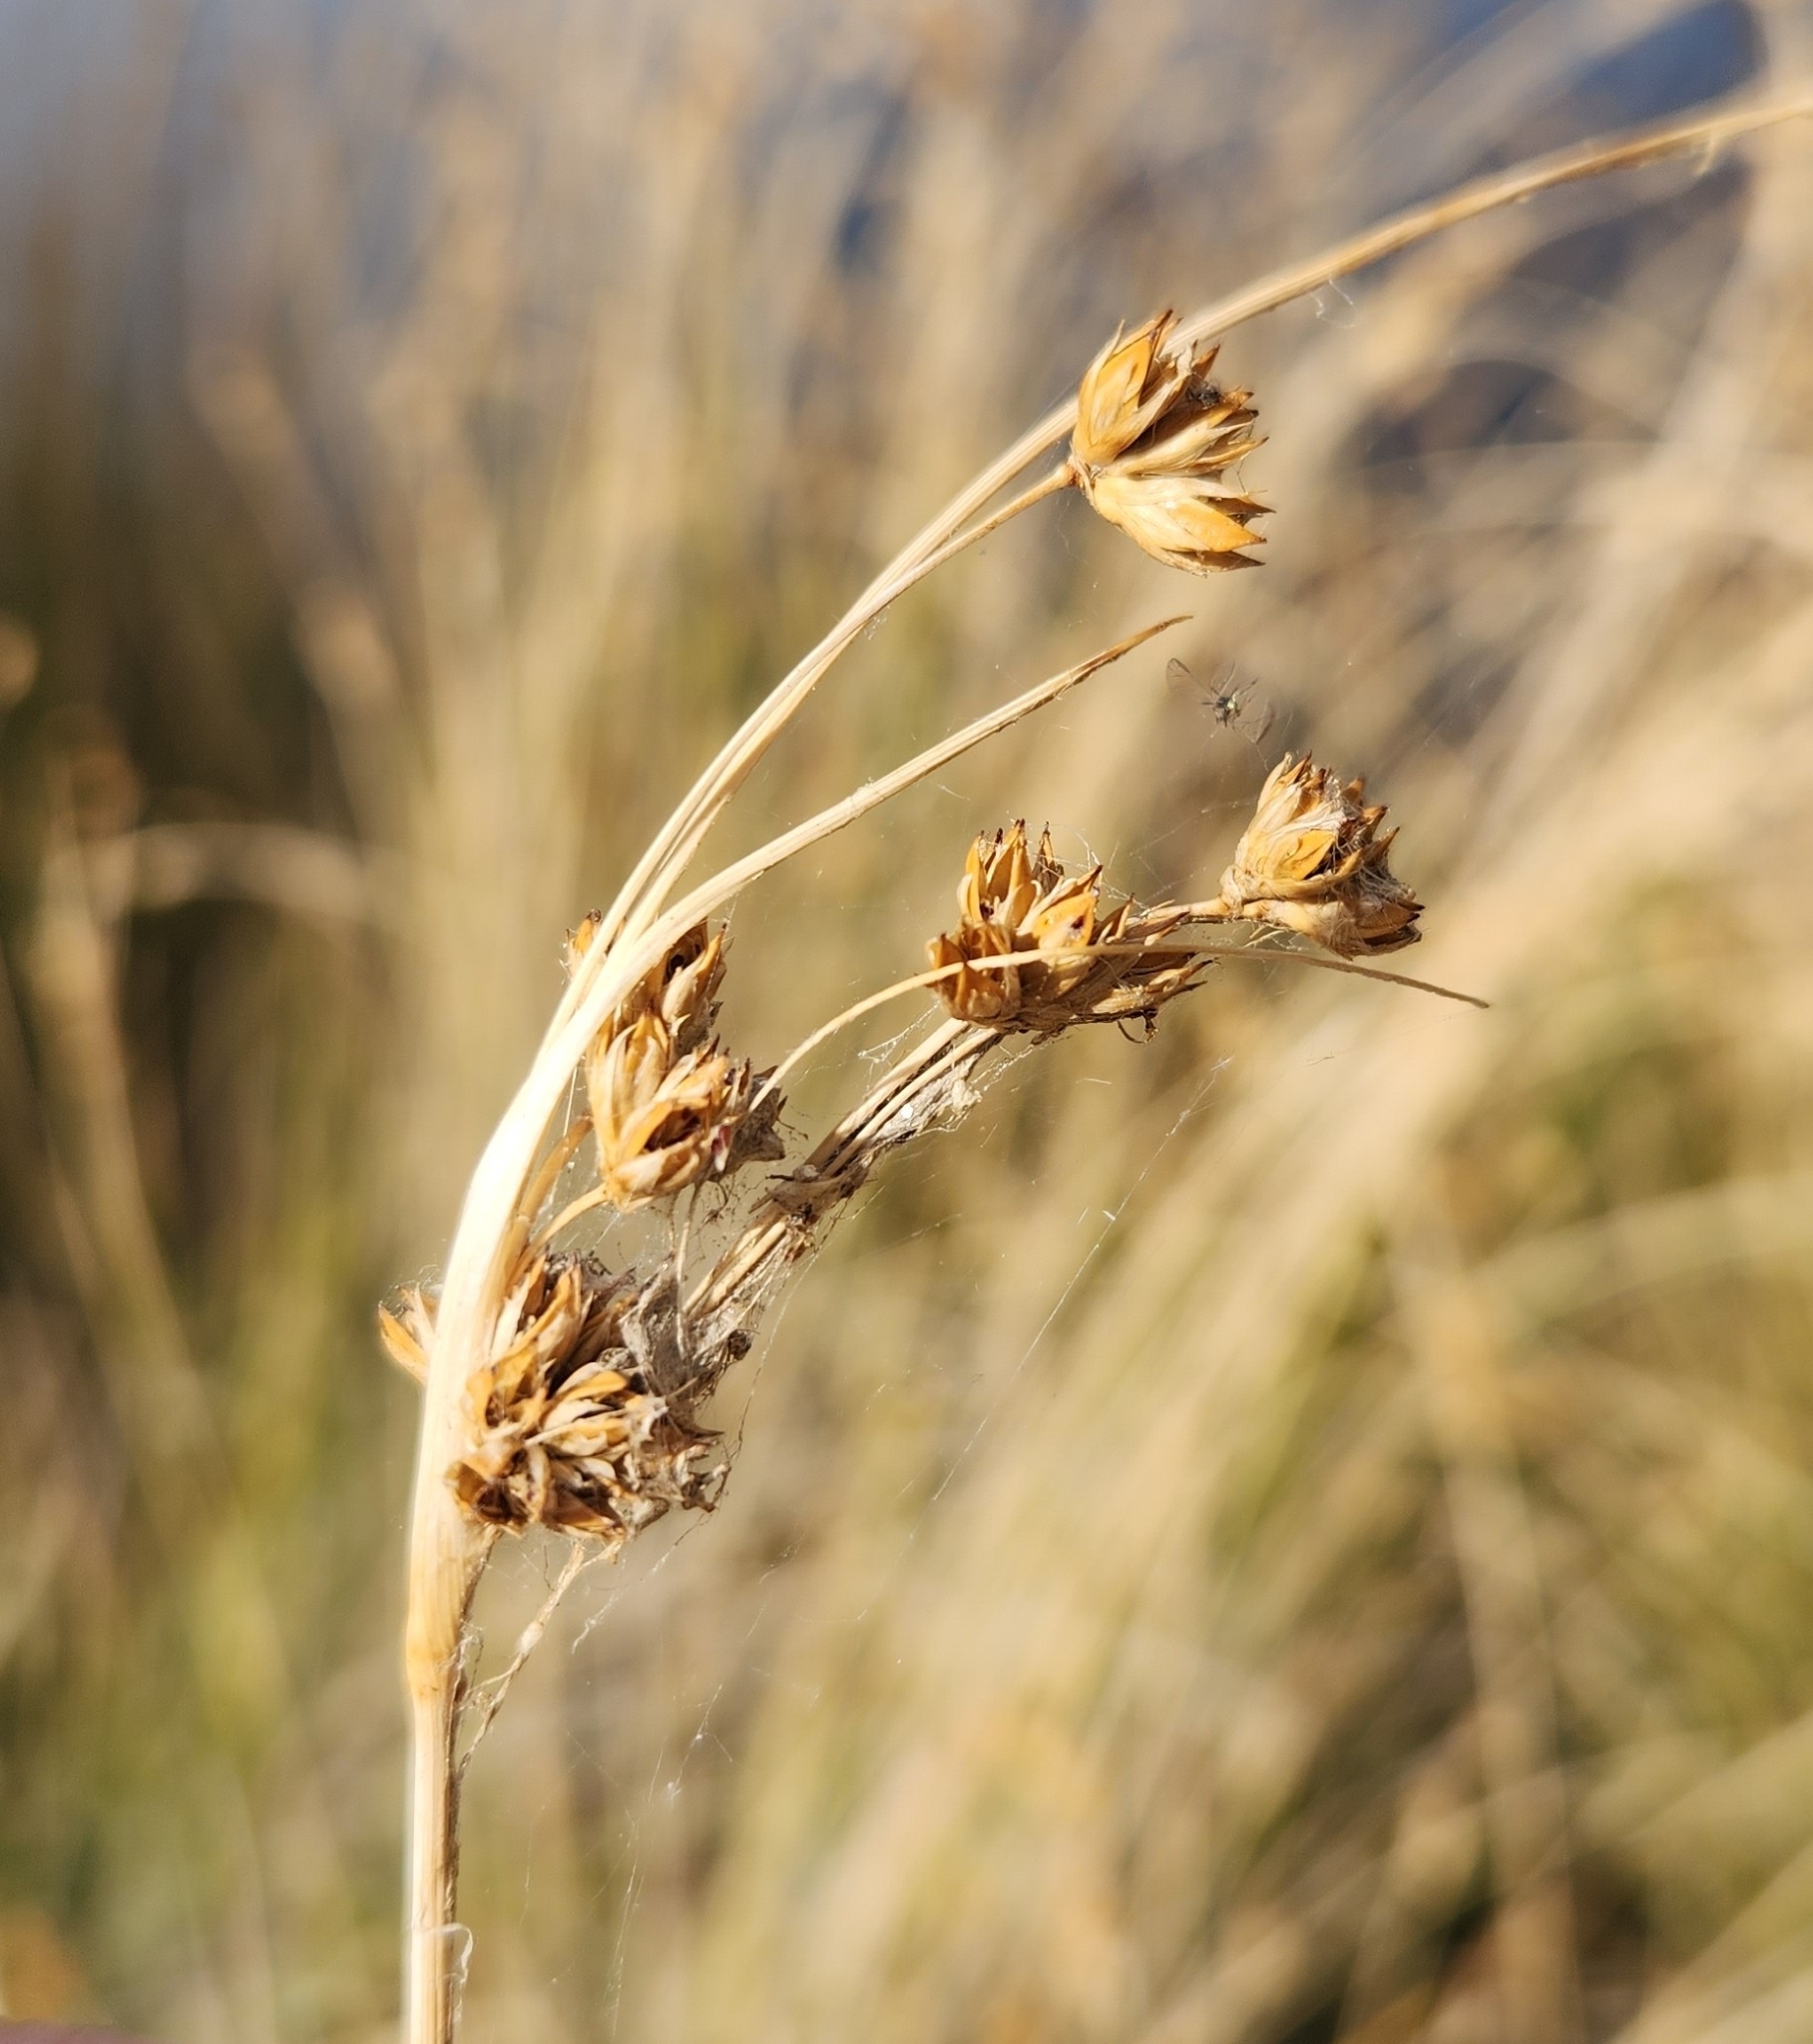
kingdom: Plantae
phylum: Tracheophyta
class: Liliopsida
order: Poales
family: Juncaceae
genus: Juncus
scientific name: Juncus cooperi
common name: Cooper's rush
